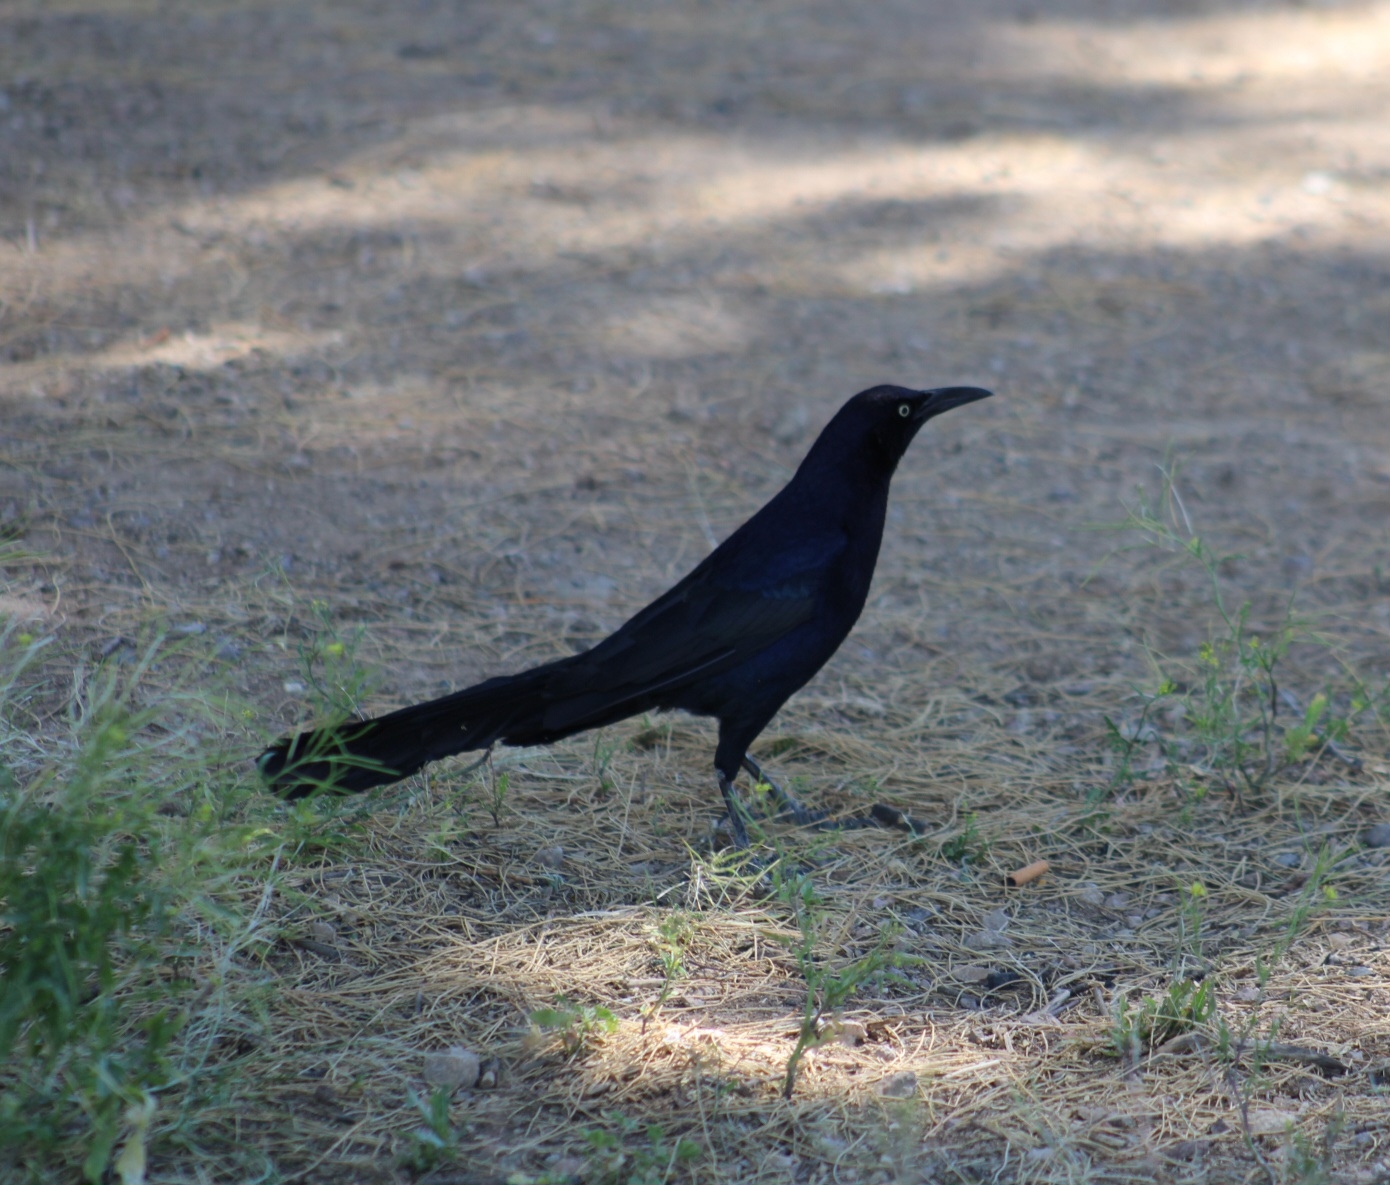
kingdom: Animalia
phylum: Chordata
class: Aves
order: Passeriformes
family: Icteridae
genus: Quiscalus
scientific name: Quiscalus mexicanus
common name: Great-tailed grackle
